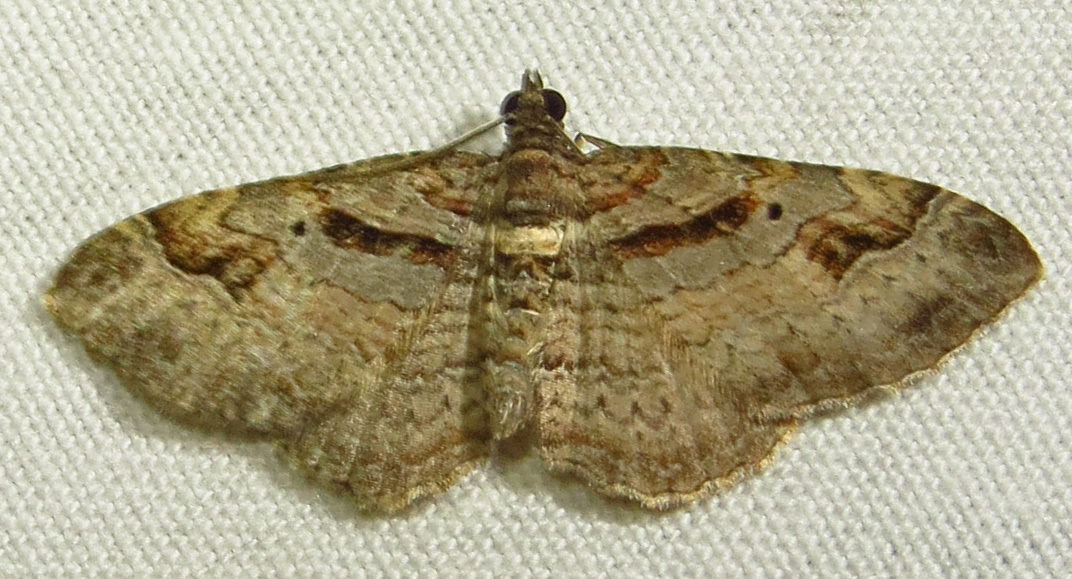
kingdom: Animalia
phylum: Arthropoda
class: Insecta
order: Lepidoptera
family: Geometridae
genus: Costaconvexa
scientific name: Costaconvexa centrostrigaria
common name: Bent-line carpet
